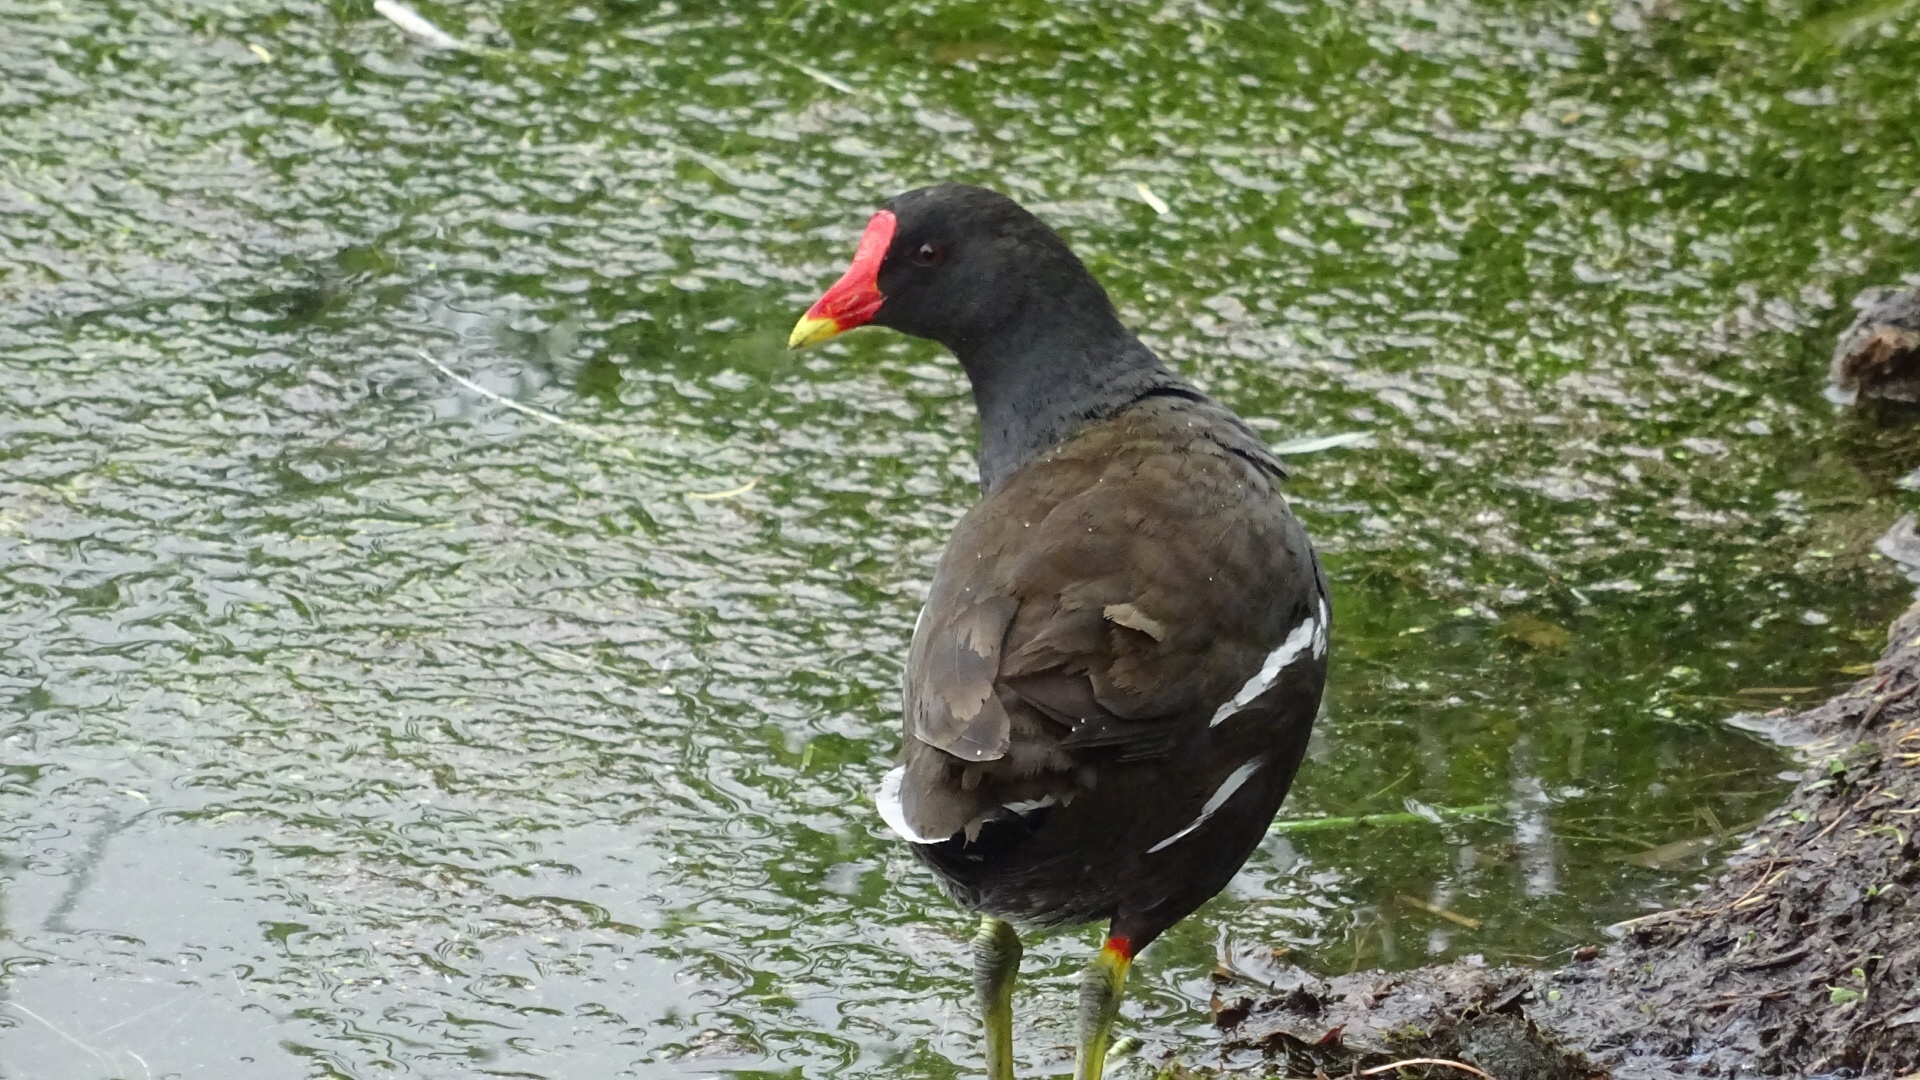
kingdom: Animalia
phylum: Chordata
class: Aves
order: Gruiformes
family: Rallidae
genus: Gallinula
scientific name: Gallinula chloropus
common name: Common moorhen
